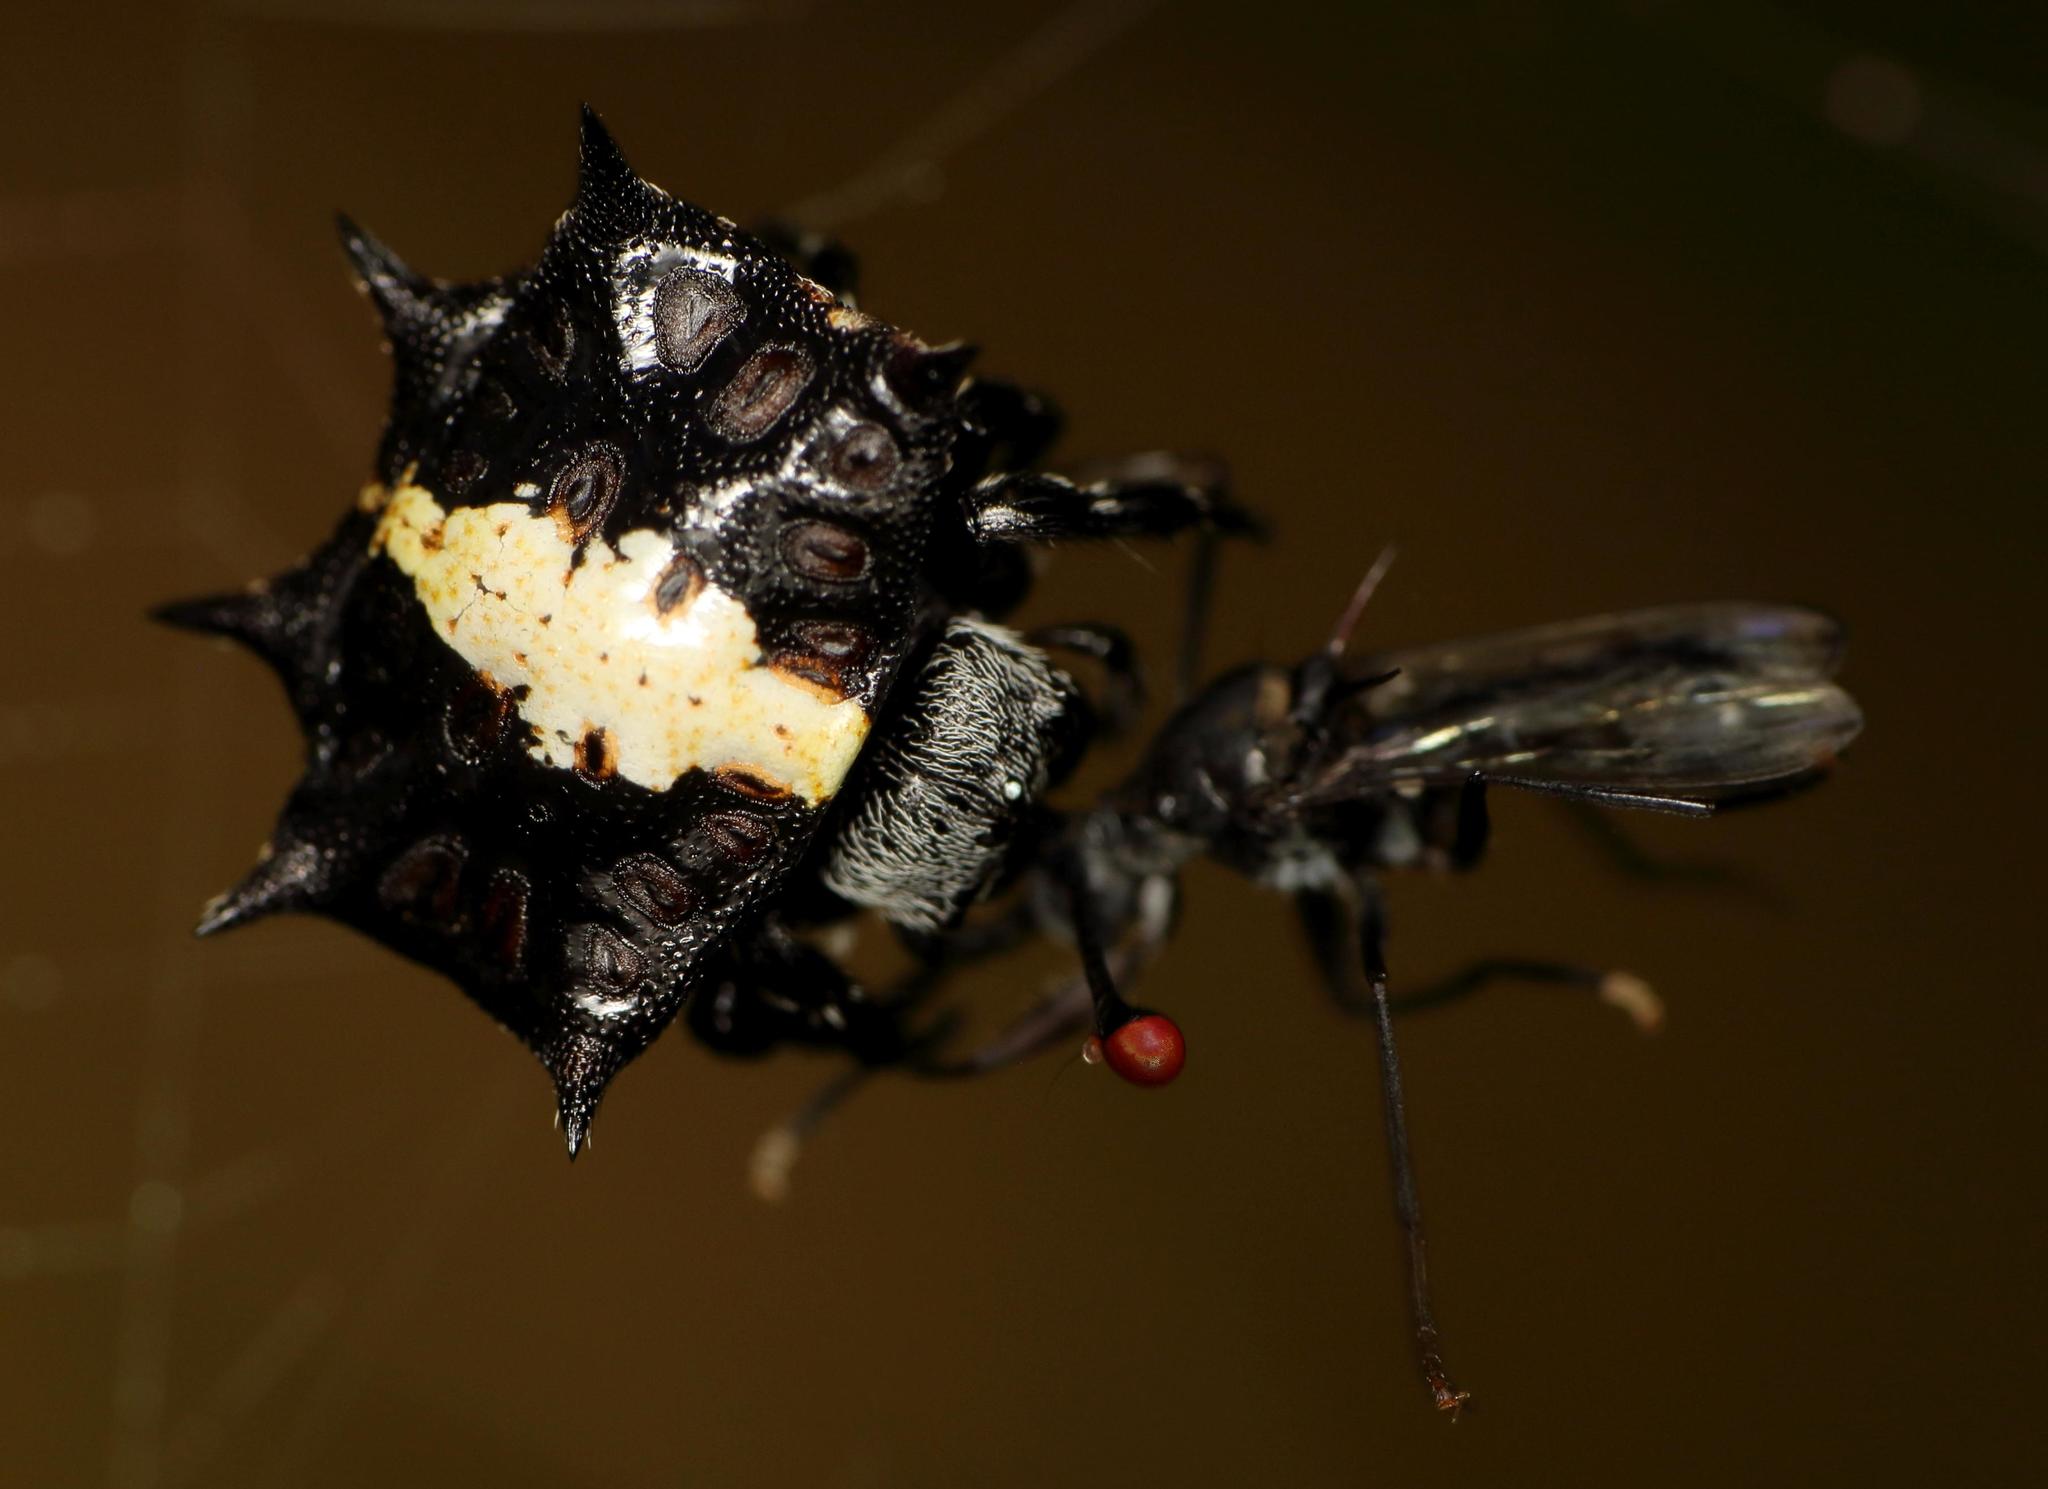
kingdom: Animalia
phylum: Arthropoda
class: Insecta
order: Diptera
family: Diopsidae
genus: Chaetodiopsis
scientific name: Chaetodiopsis
